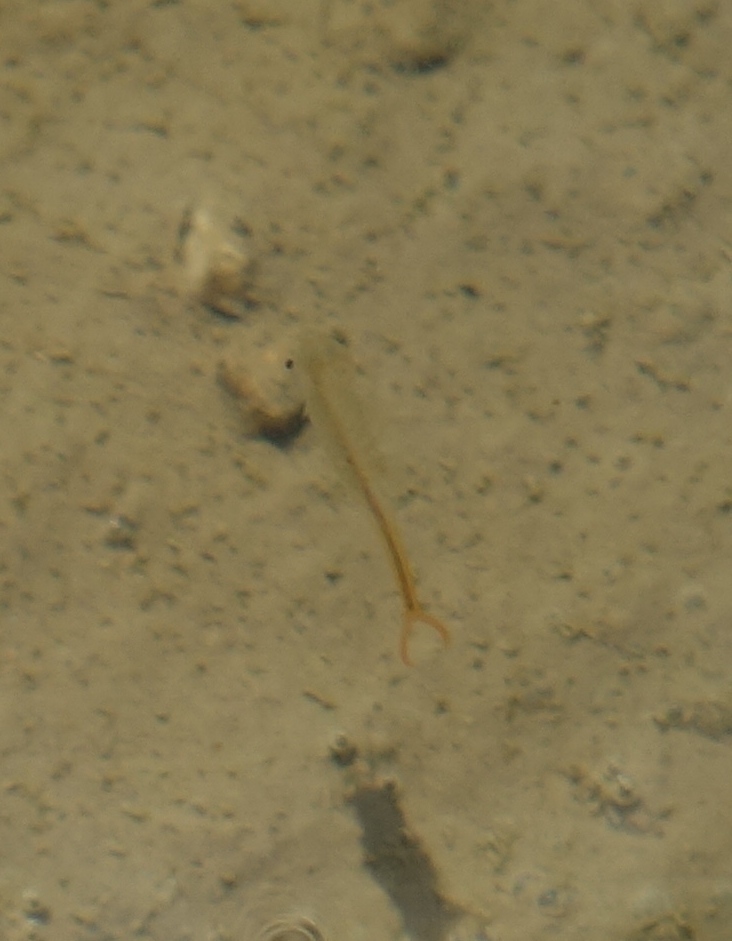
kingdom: Animalia
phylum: Arthropoda
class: Branchiopoda
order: Anostraca
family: Branchipodidae
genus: Branchipus
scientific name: Branchipus schaefferi
